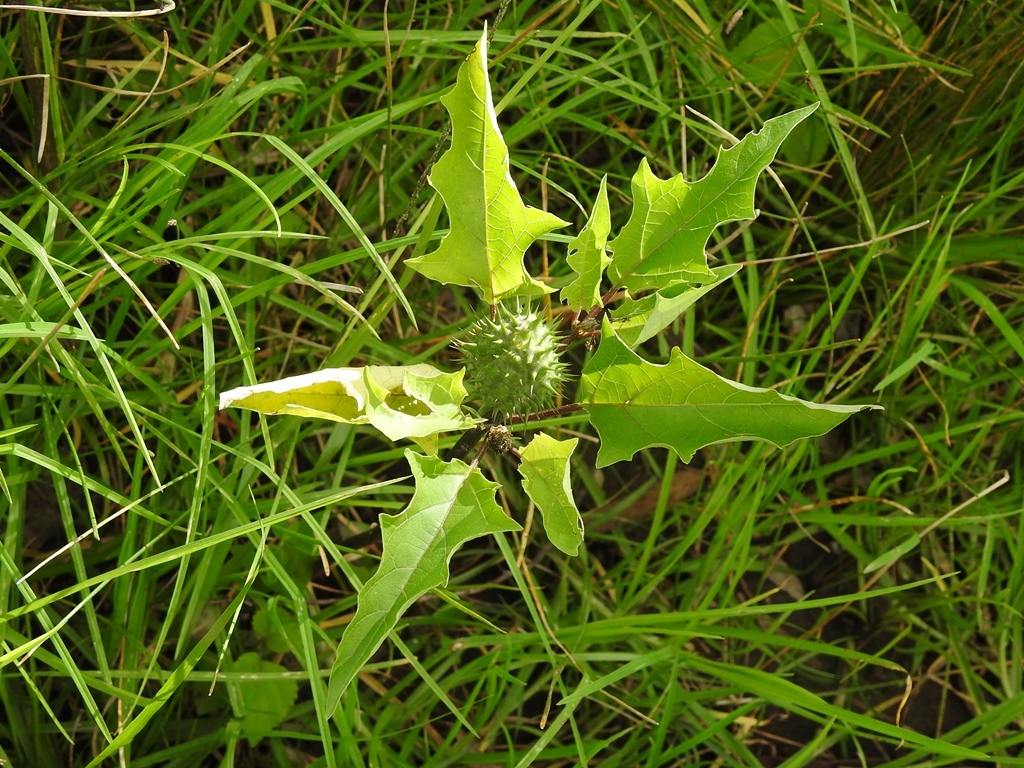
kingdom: Plantae
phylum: Tracheophyta
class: Magnoliopsida
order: Solanales
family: Solanaceae
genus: Datura
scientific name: Datura stramonium
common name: Thorn-apple
